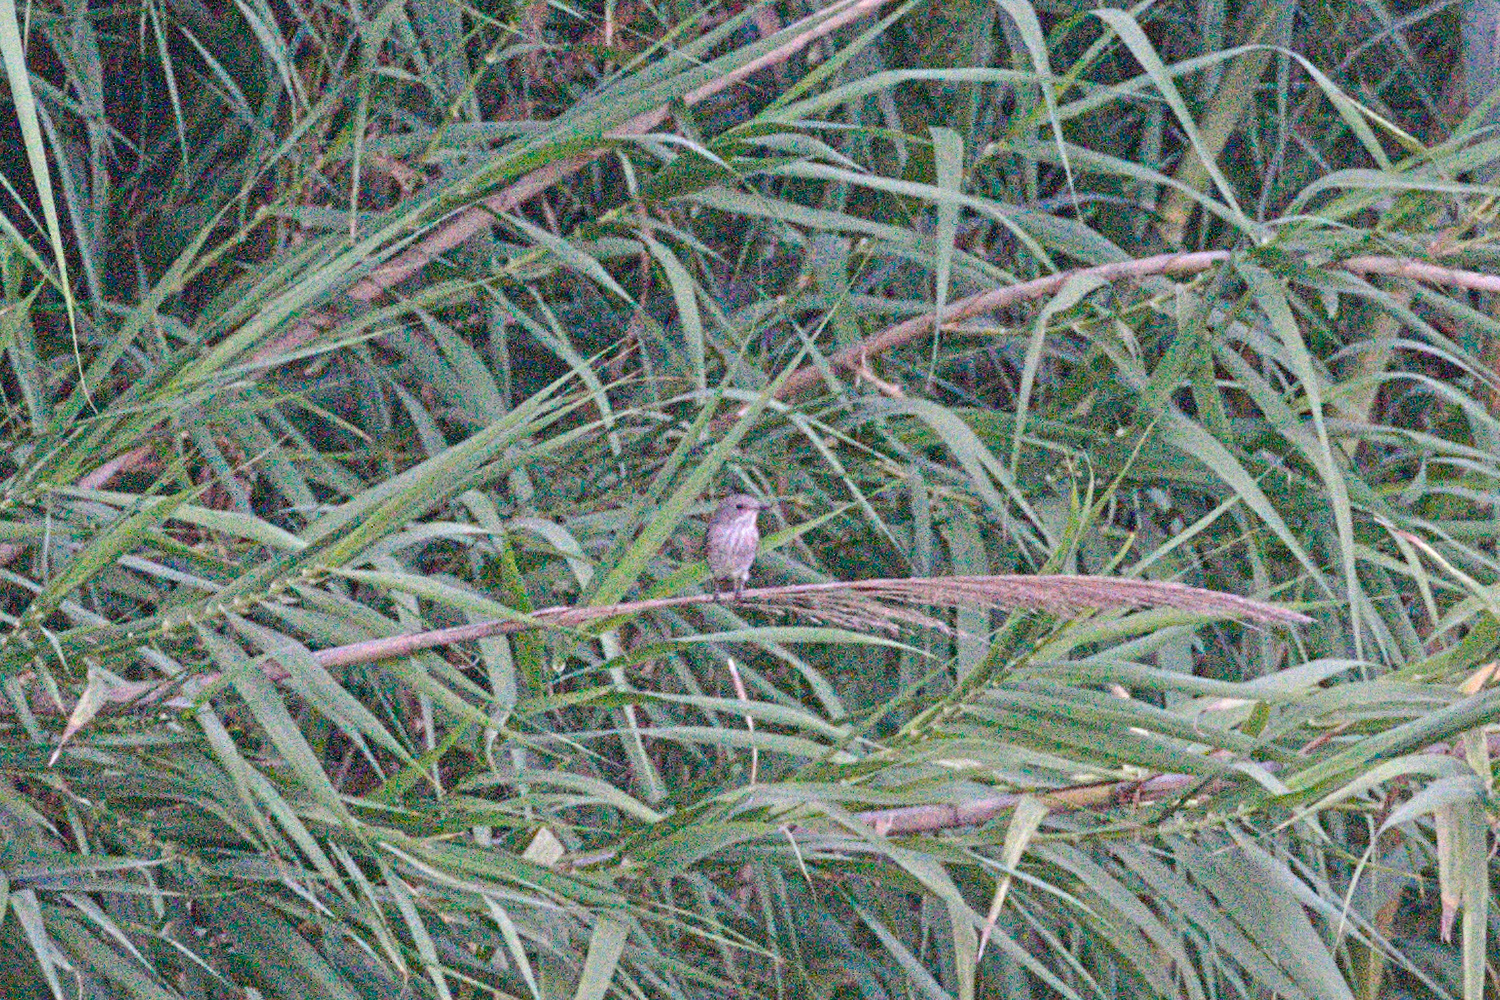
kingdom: Animalia
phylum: Chordata
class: Aves
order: Passeriformes
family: Muscicapidae
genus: Muscicapa
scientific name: Muscicapa striata
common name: Spotted flycatcher
